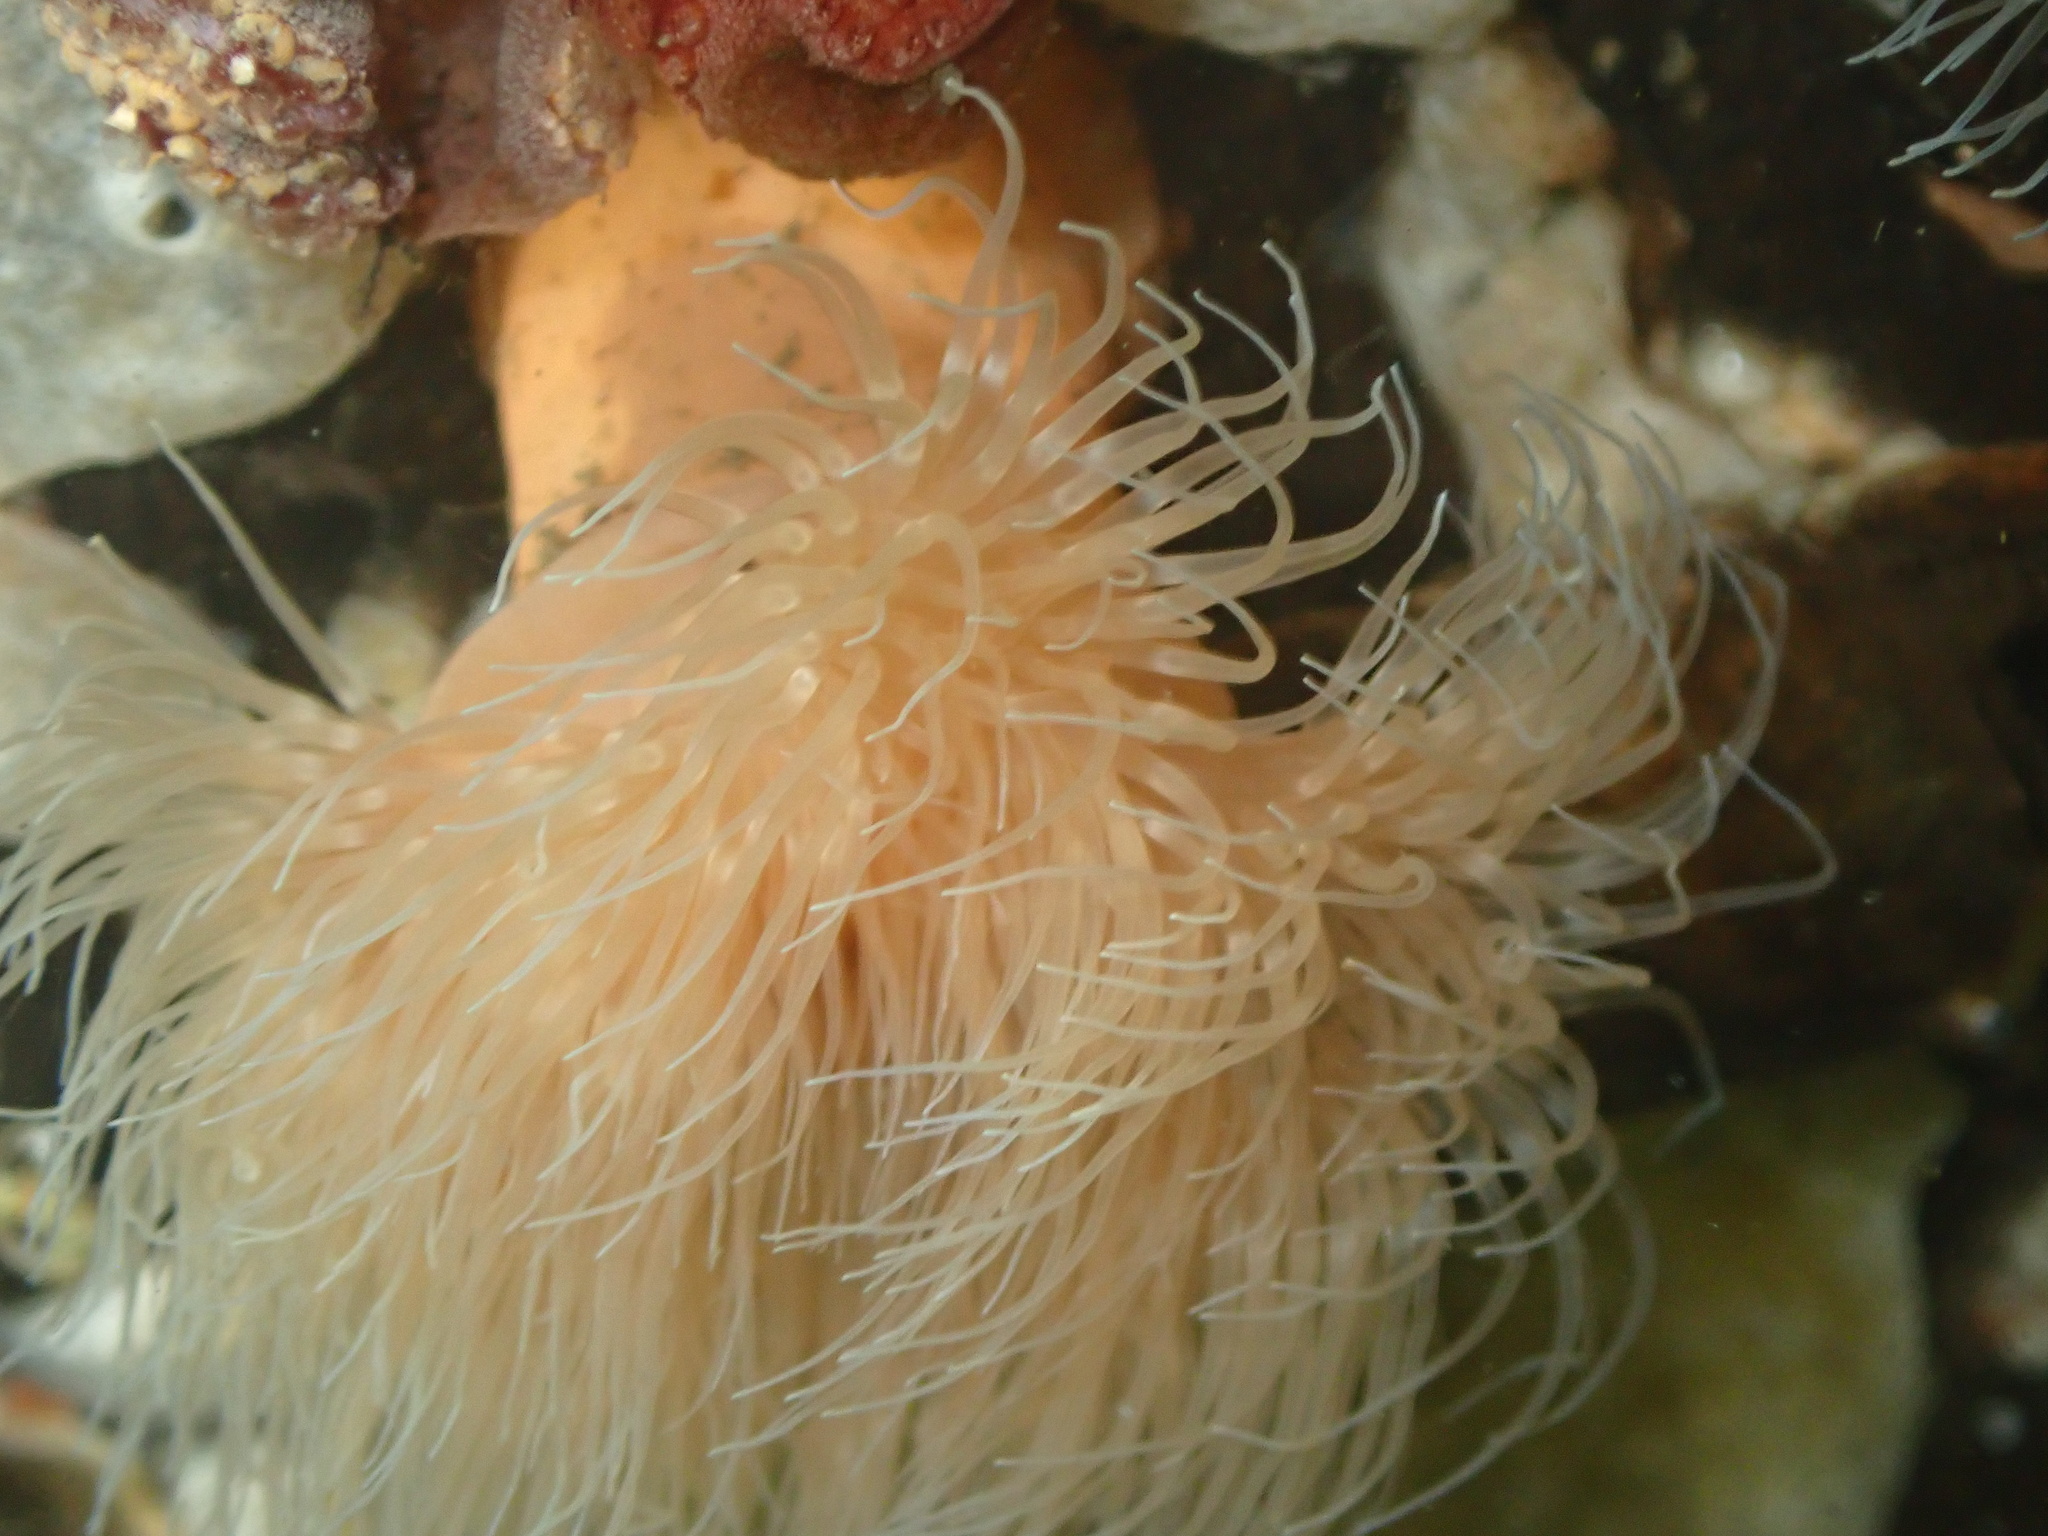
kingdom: Animalia
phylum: Cnidaria
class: Anthozoa
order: Actiniaria
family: Metridiidae
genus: Metridium
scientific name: Metridium senile
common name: Clonal plumose anemone
